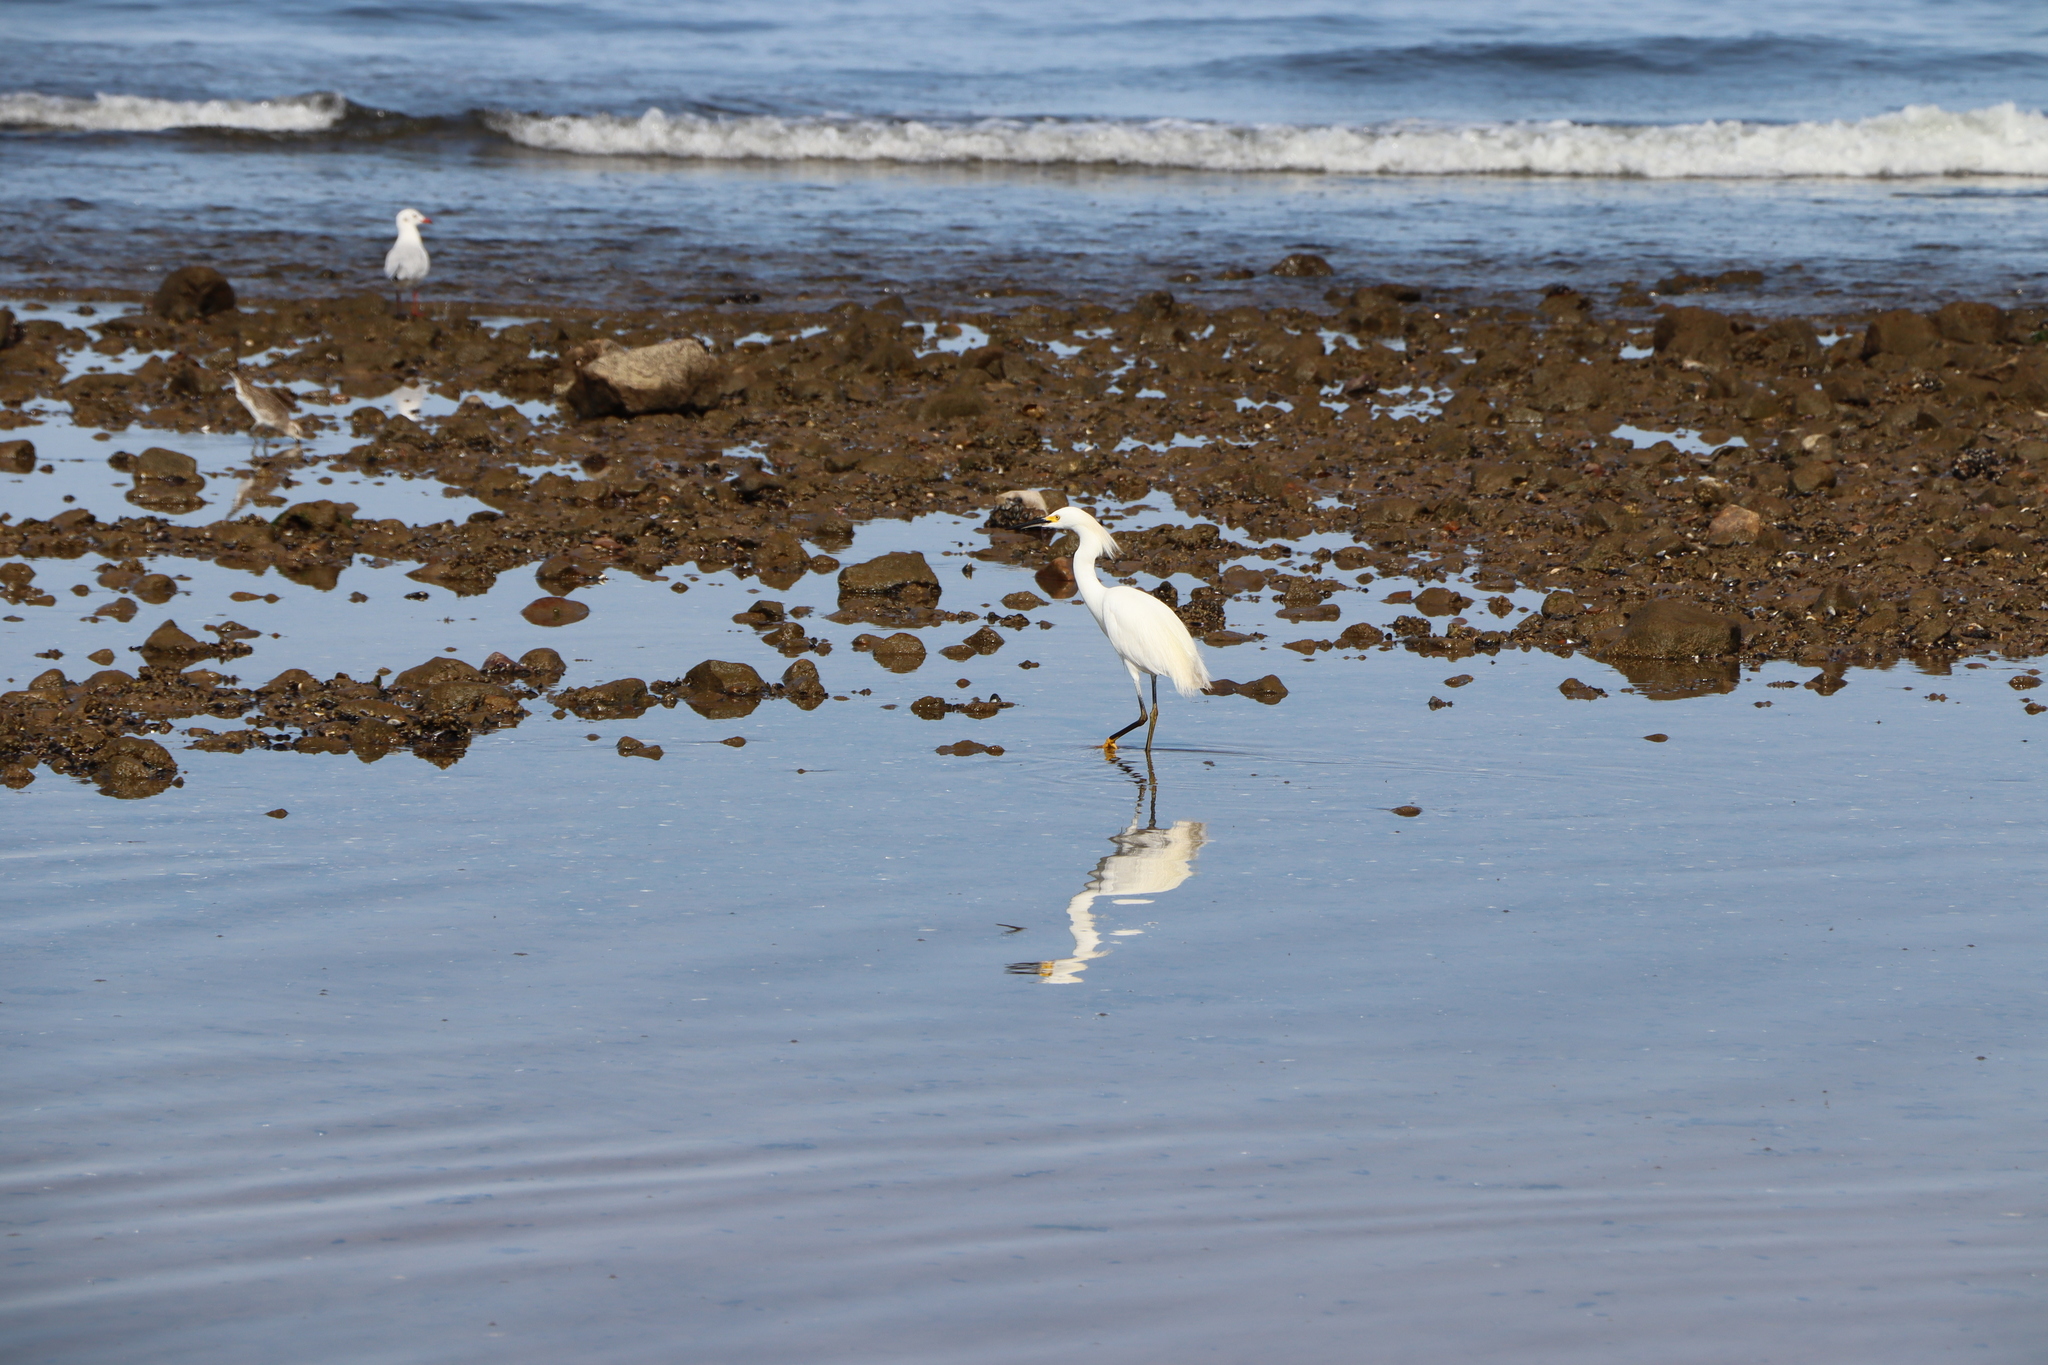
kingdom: Animalia
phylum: Chordata
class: Aves
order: Pelecaniformes
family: Ardeidae
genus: Egretta
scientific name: Egretta thula
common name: Snowy egret
